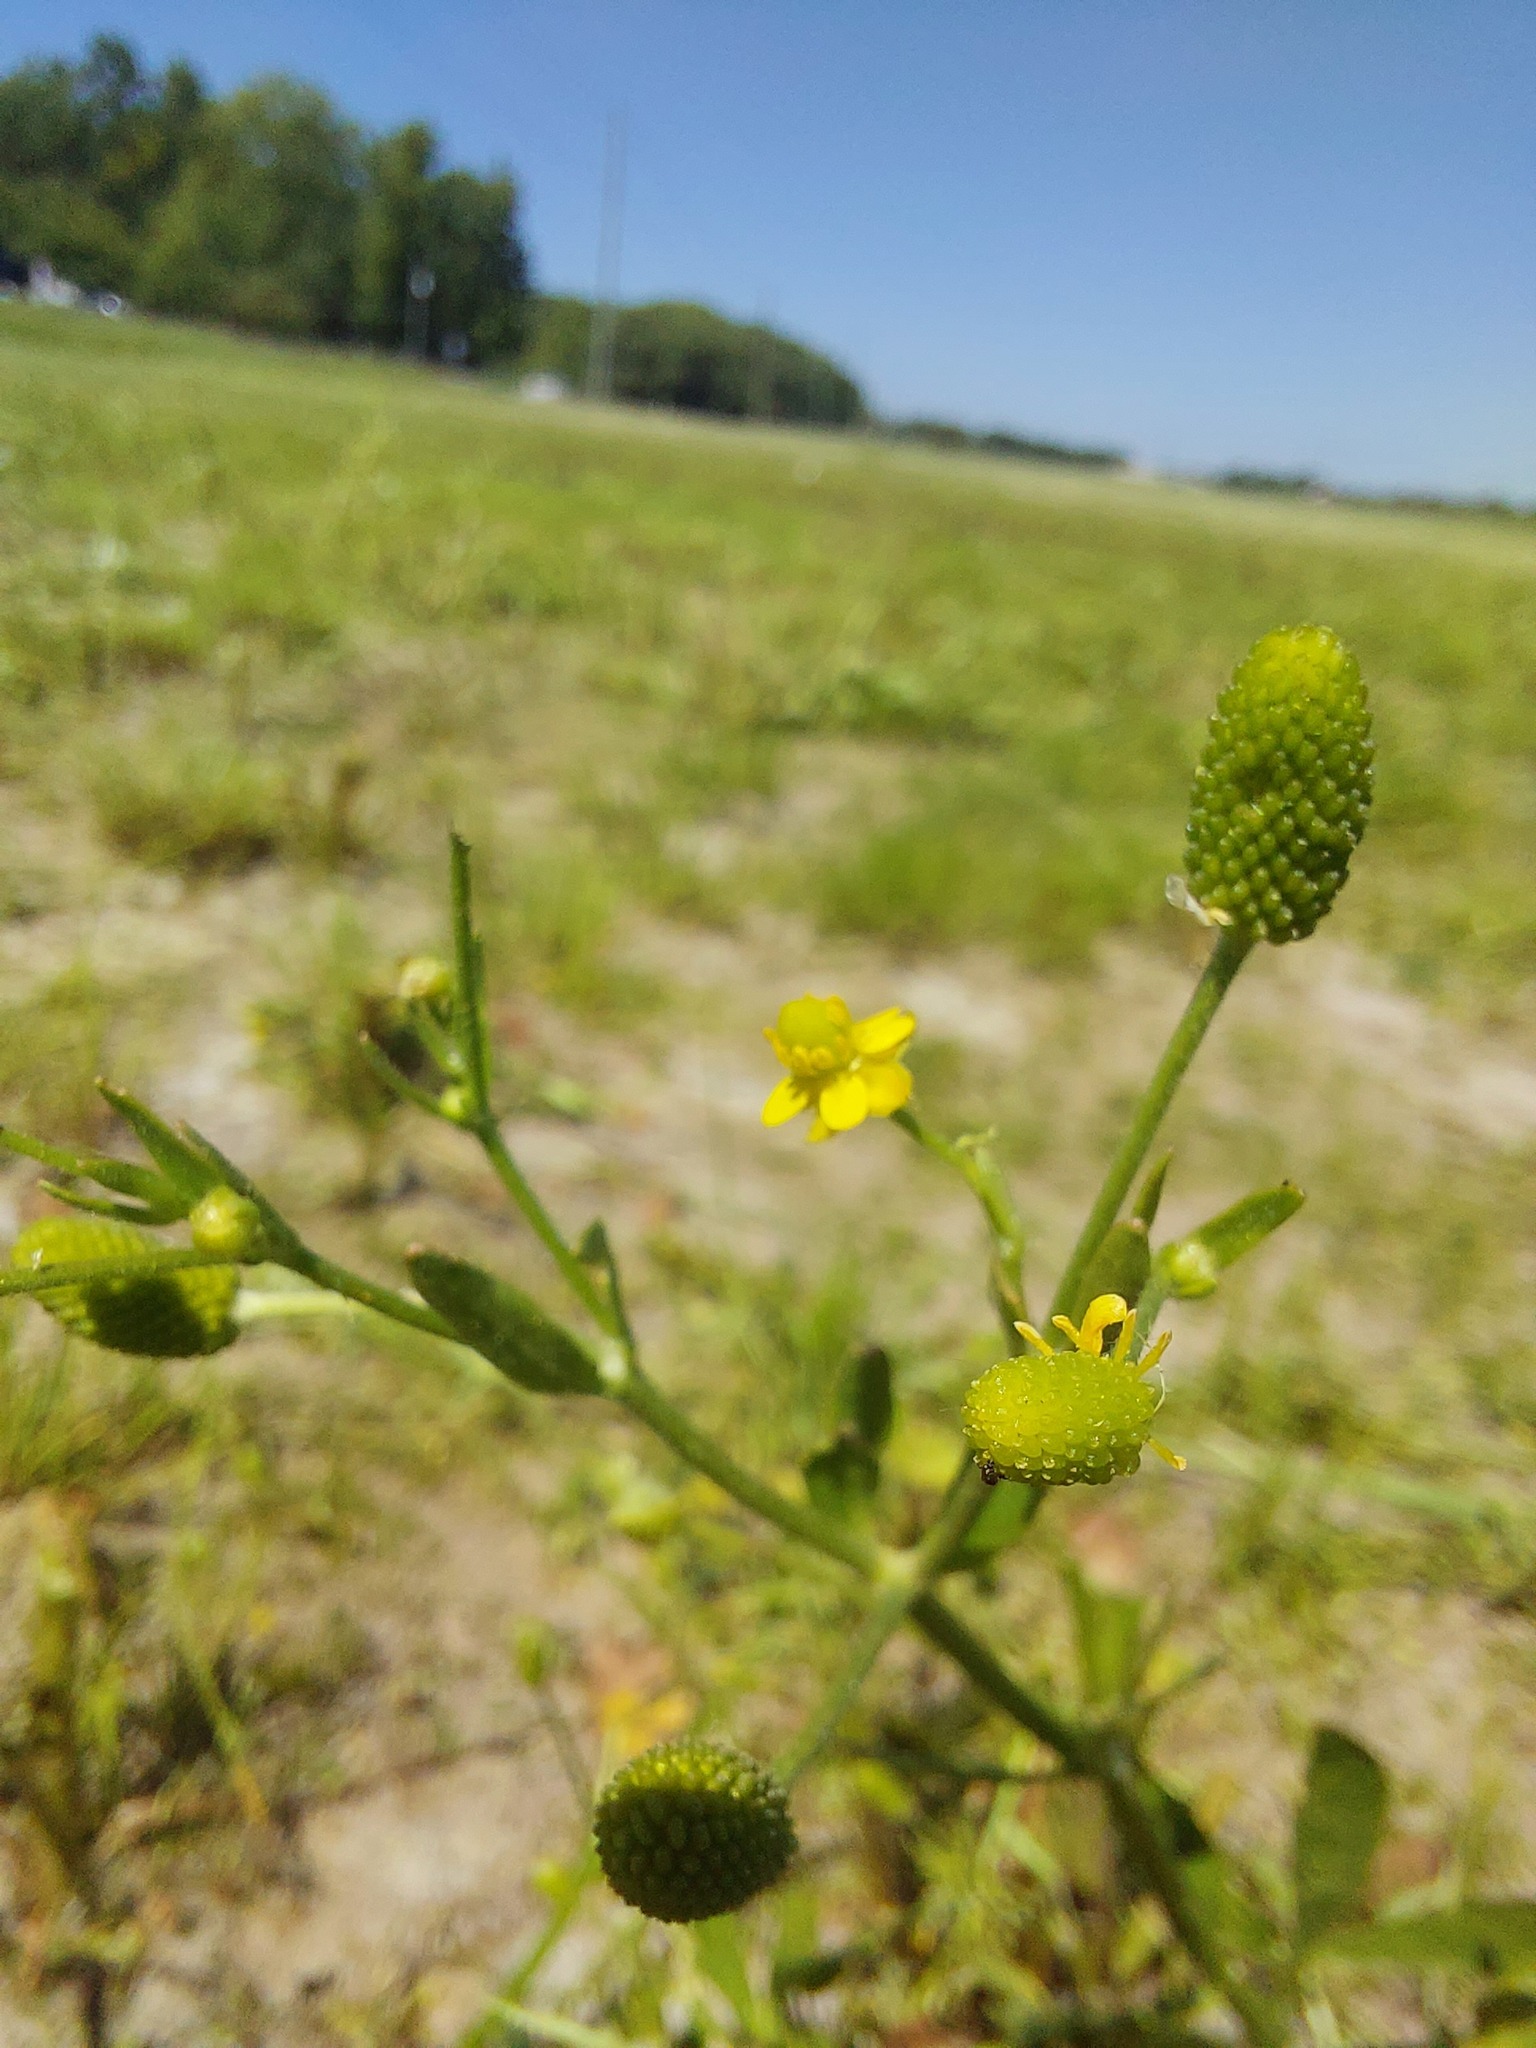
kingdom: Plantae
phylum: Tracheophyta
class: Magnoliopsida
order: Ranunculales
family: Ranunculaceae
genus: Ranunculus
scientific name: Ranunculus sceleratus
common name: Celery-leaved buttercup
